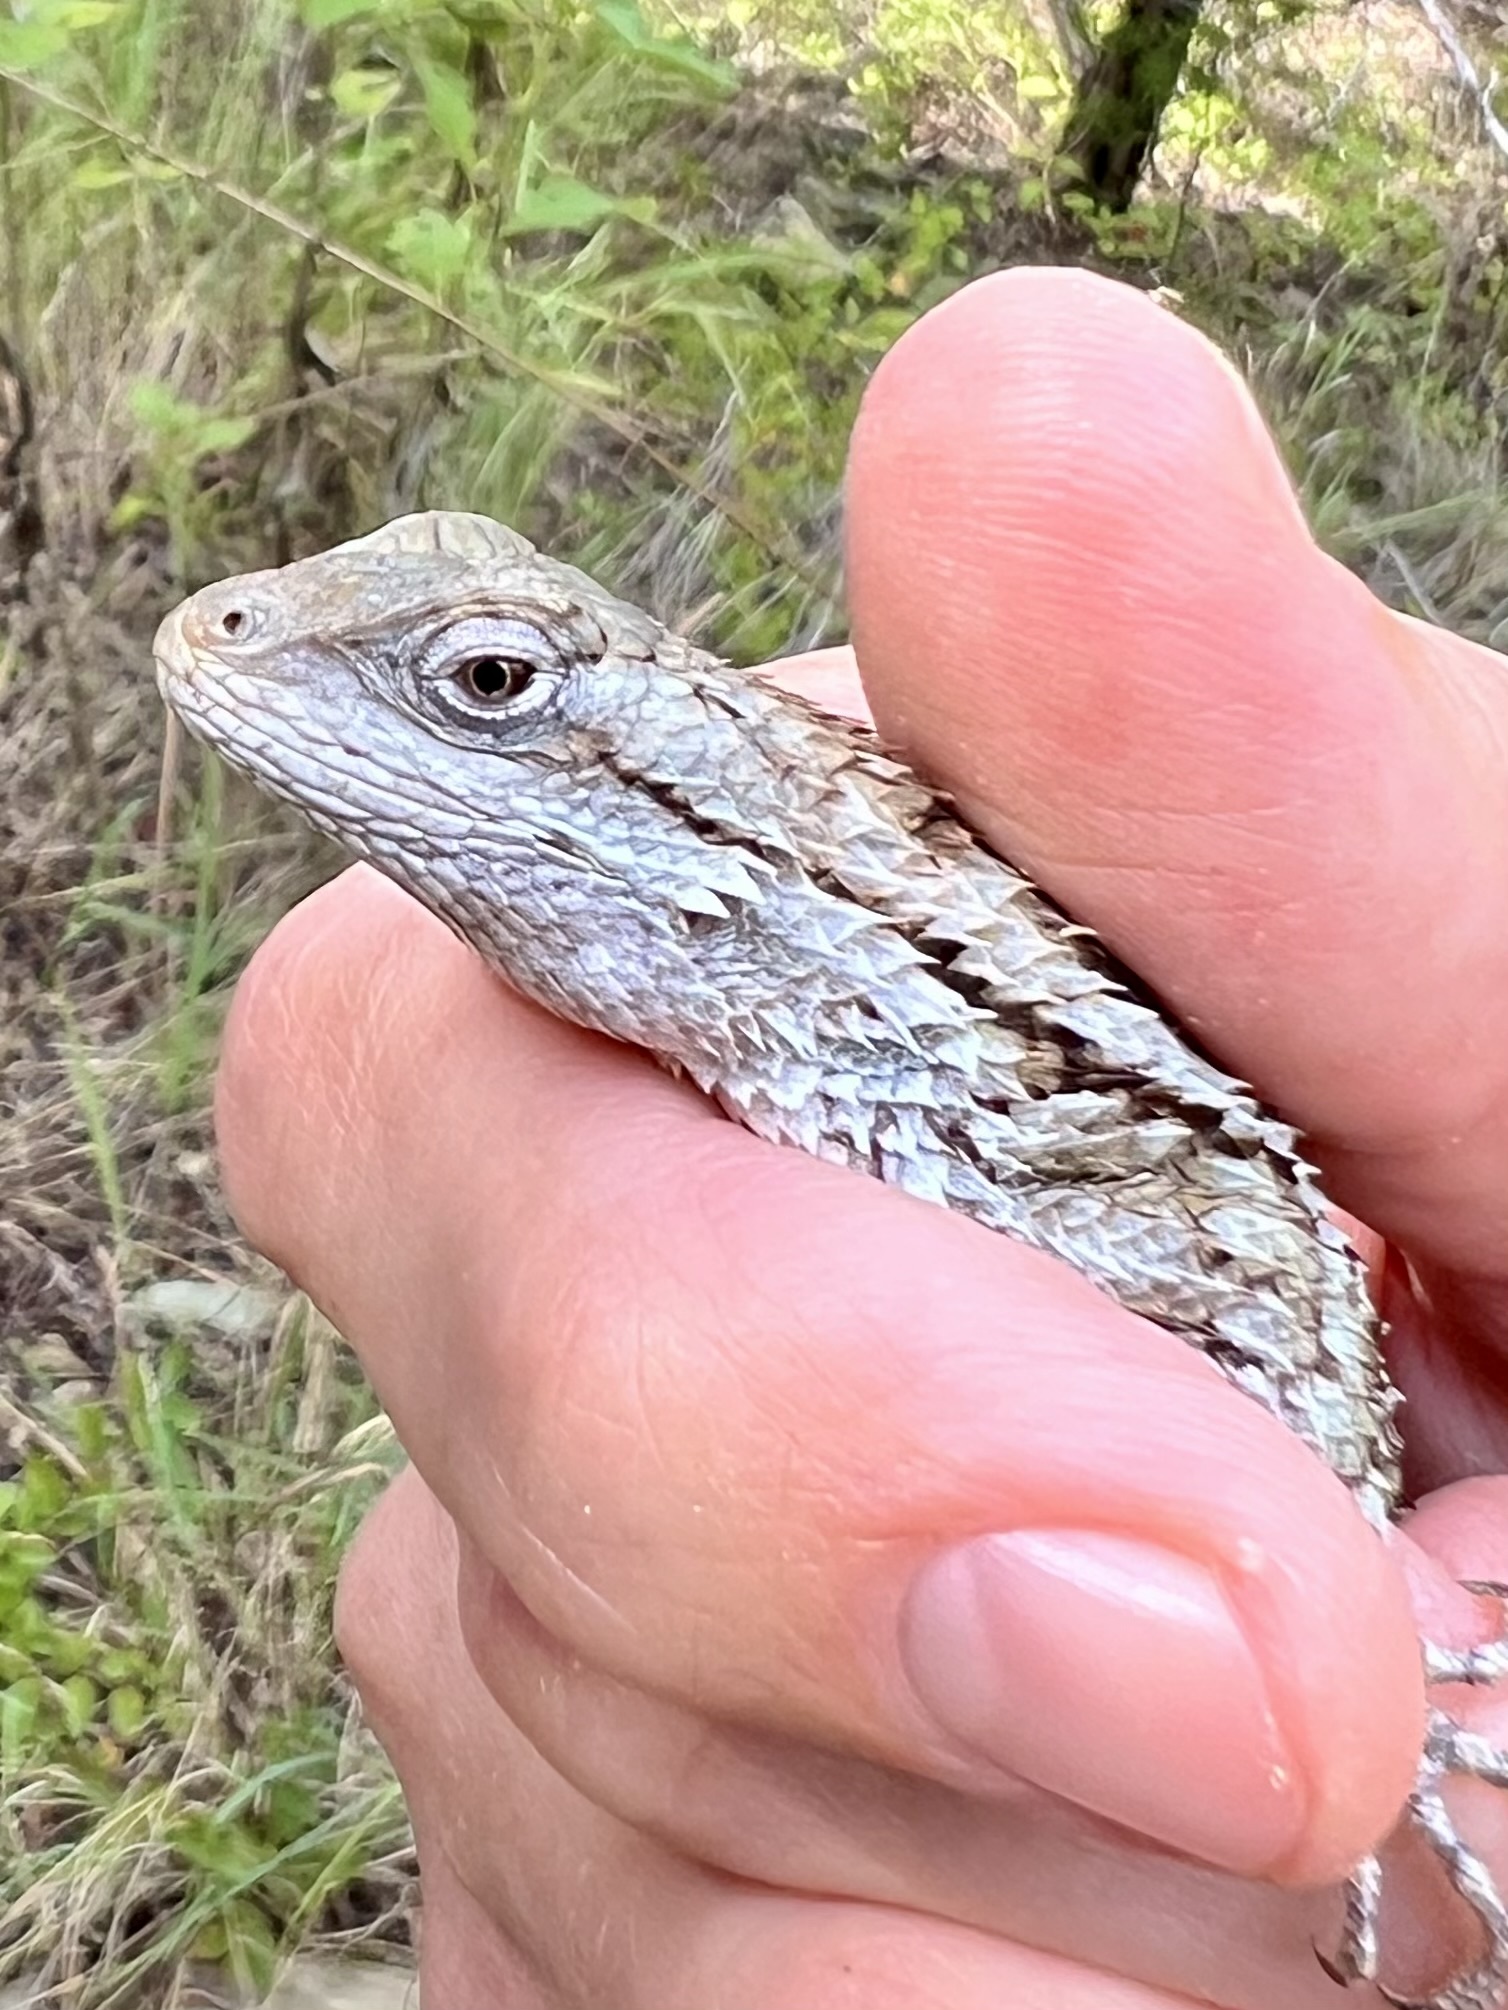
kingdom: Animalia
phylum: Chordata
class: Squamata
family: Phrynosomatidae
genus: Sceloporus
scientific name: Sceloporus olivaceus
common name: Texas spiny lizard
